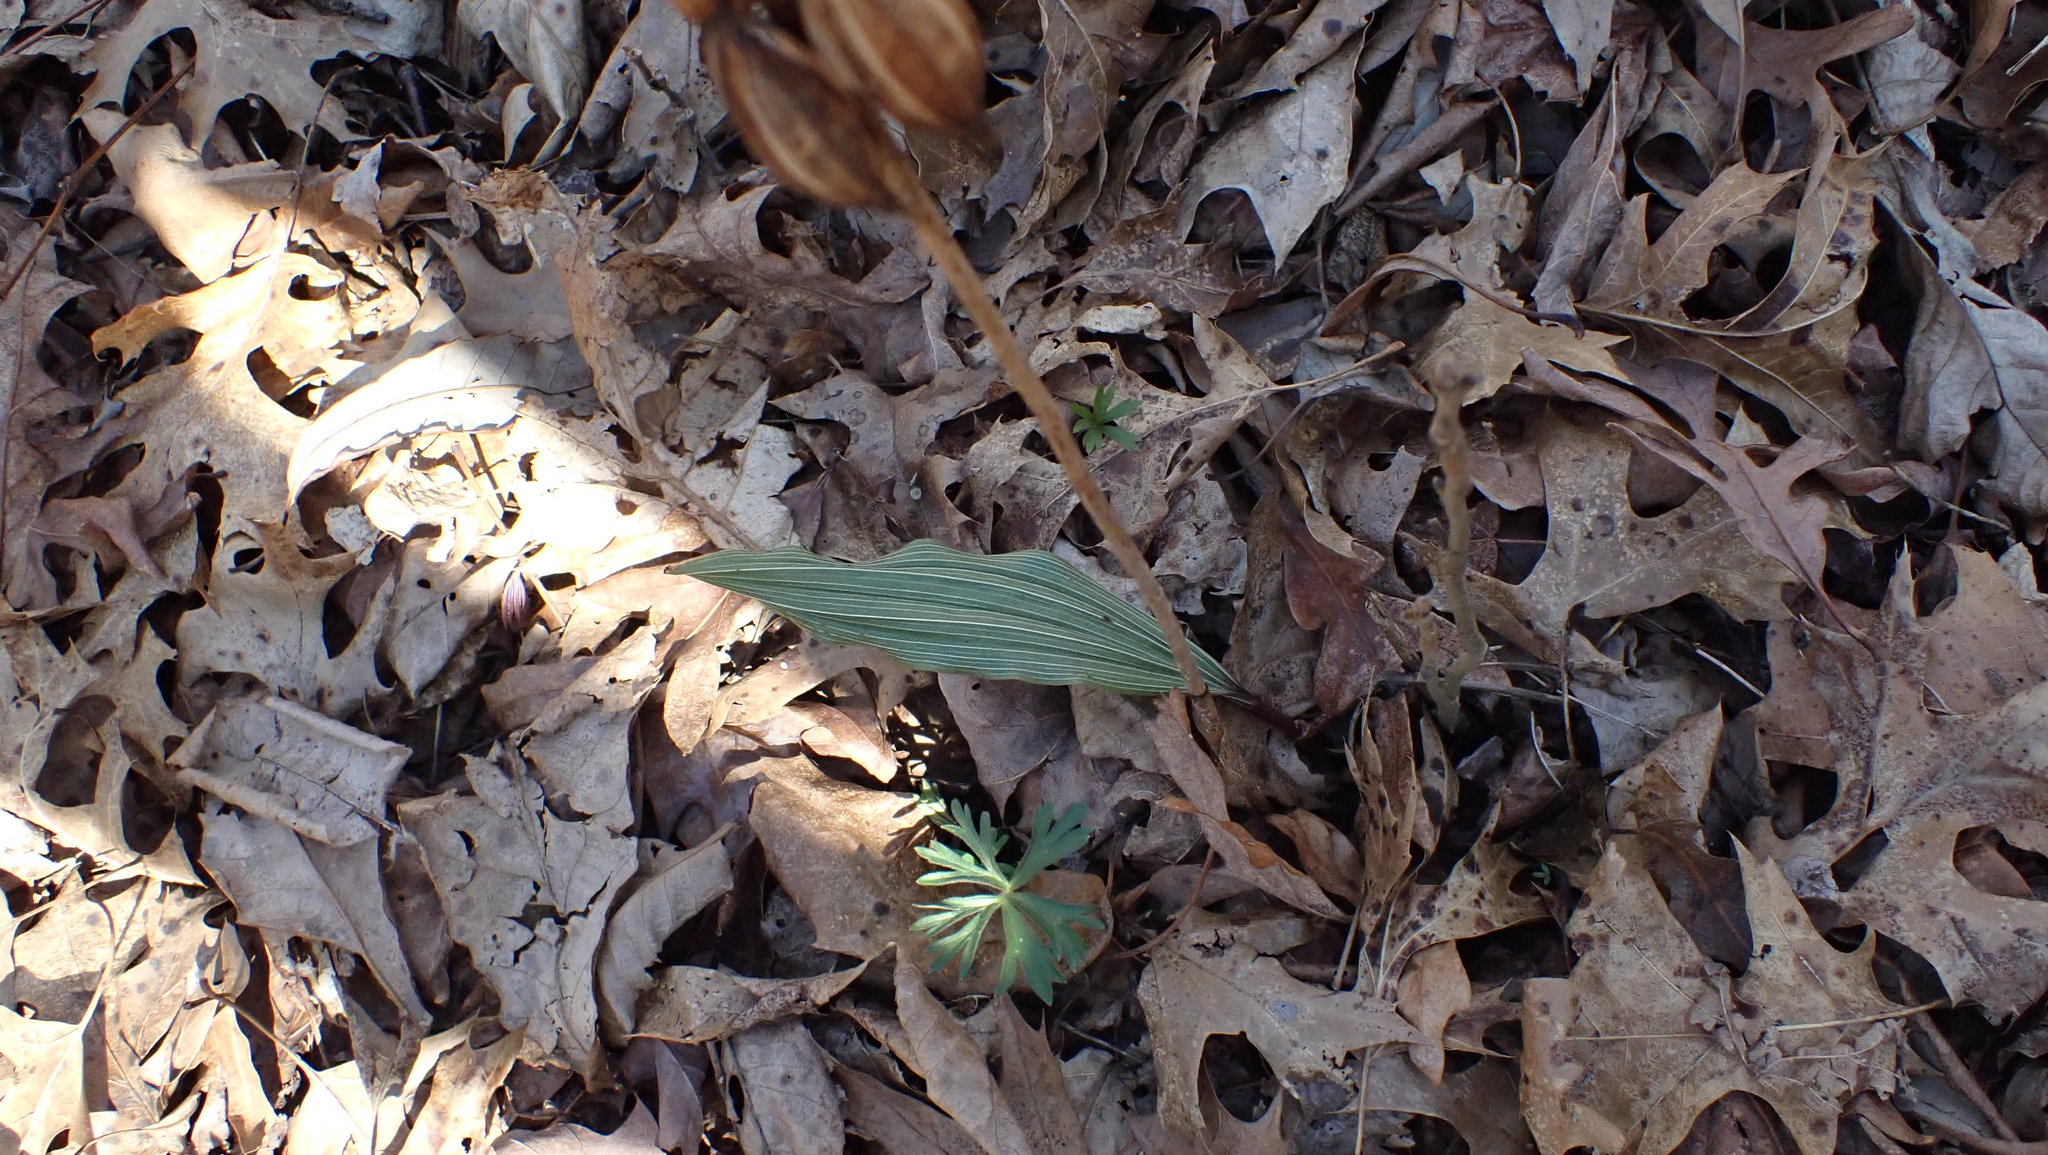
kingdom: Plantae
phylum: Tracheophyta
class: Liliopsida
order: Asparagales
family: Orchidaceae
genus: Aplectrum
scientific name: Aplectrum hyemale
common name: Adam-and-eve
